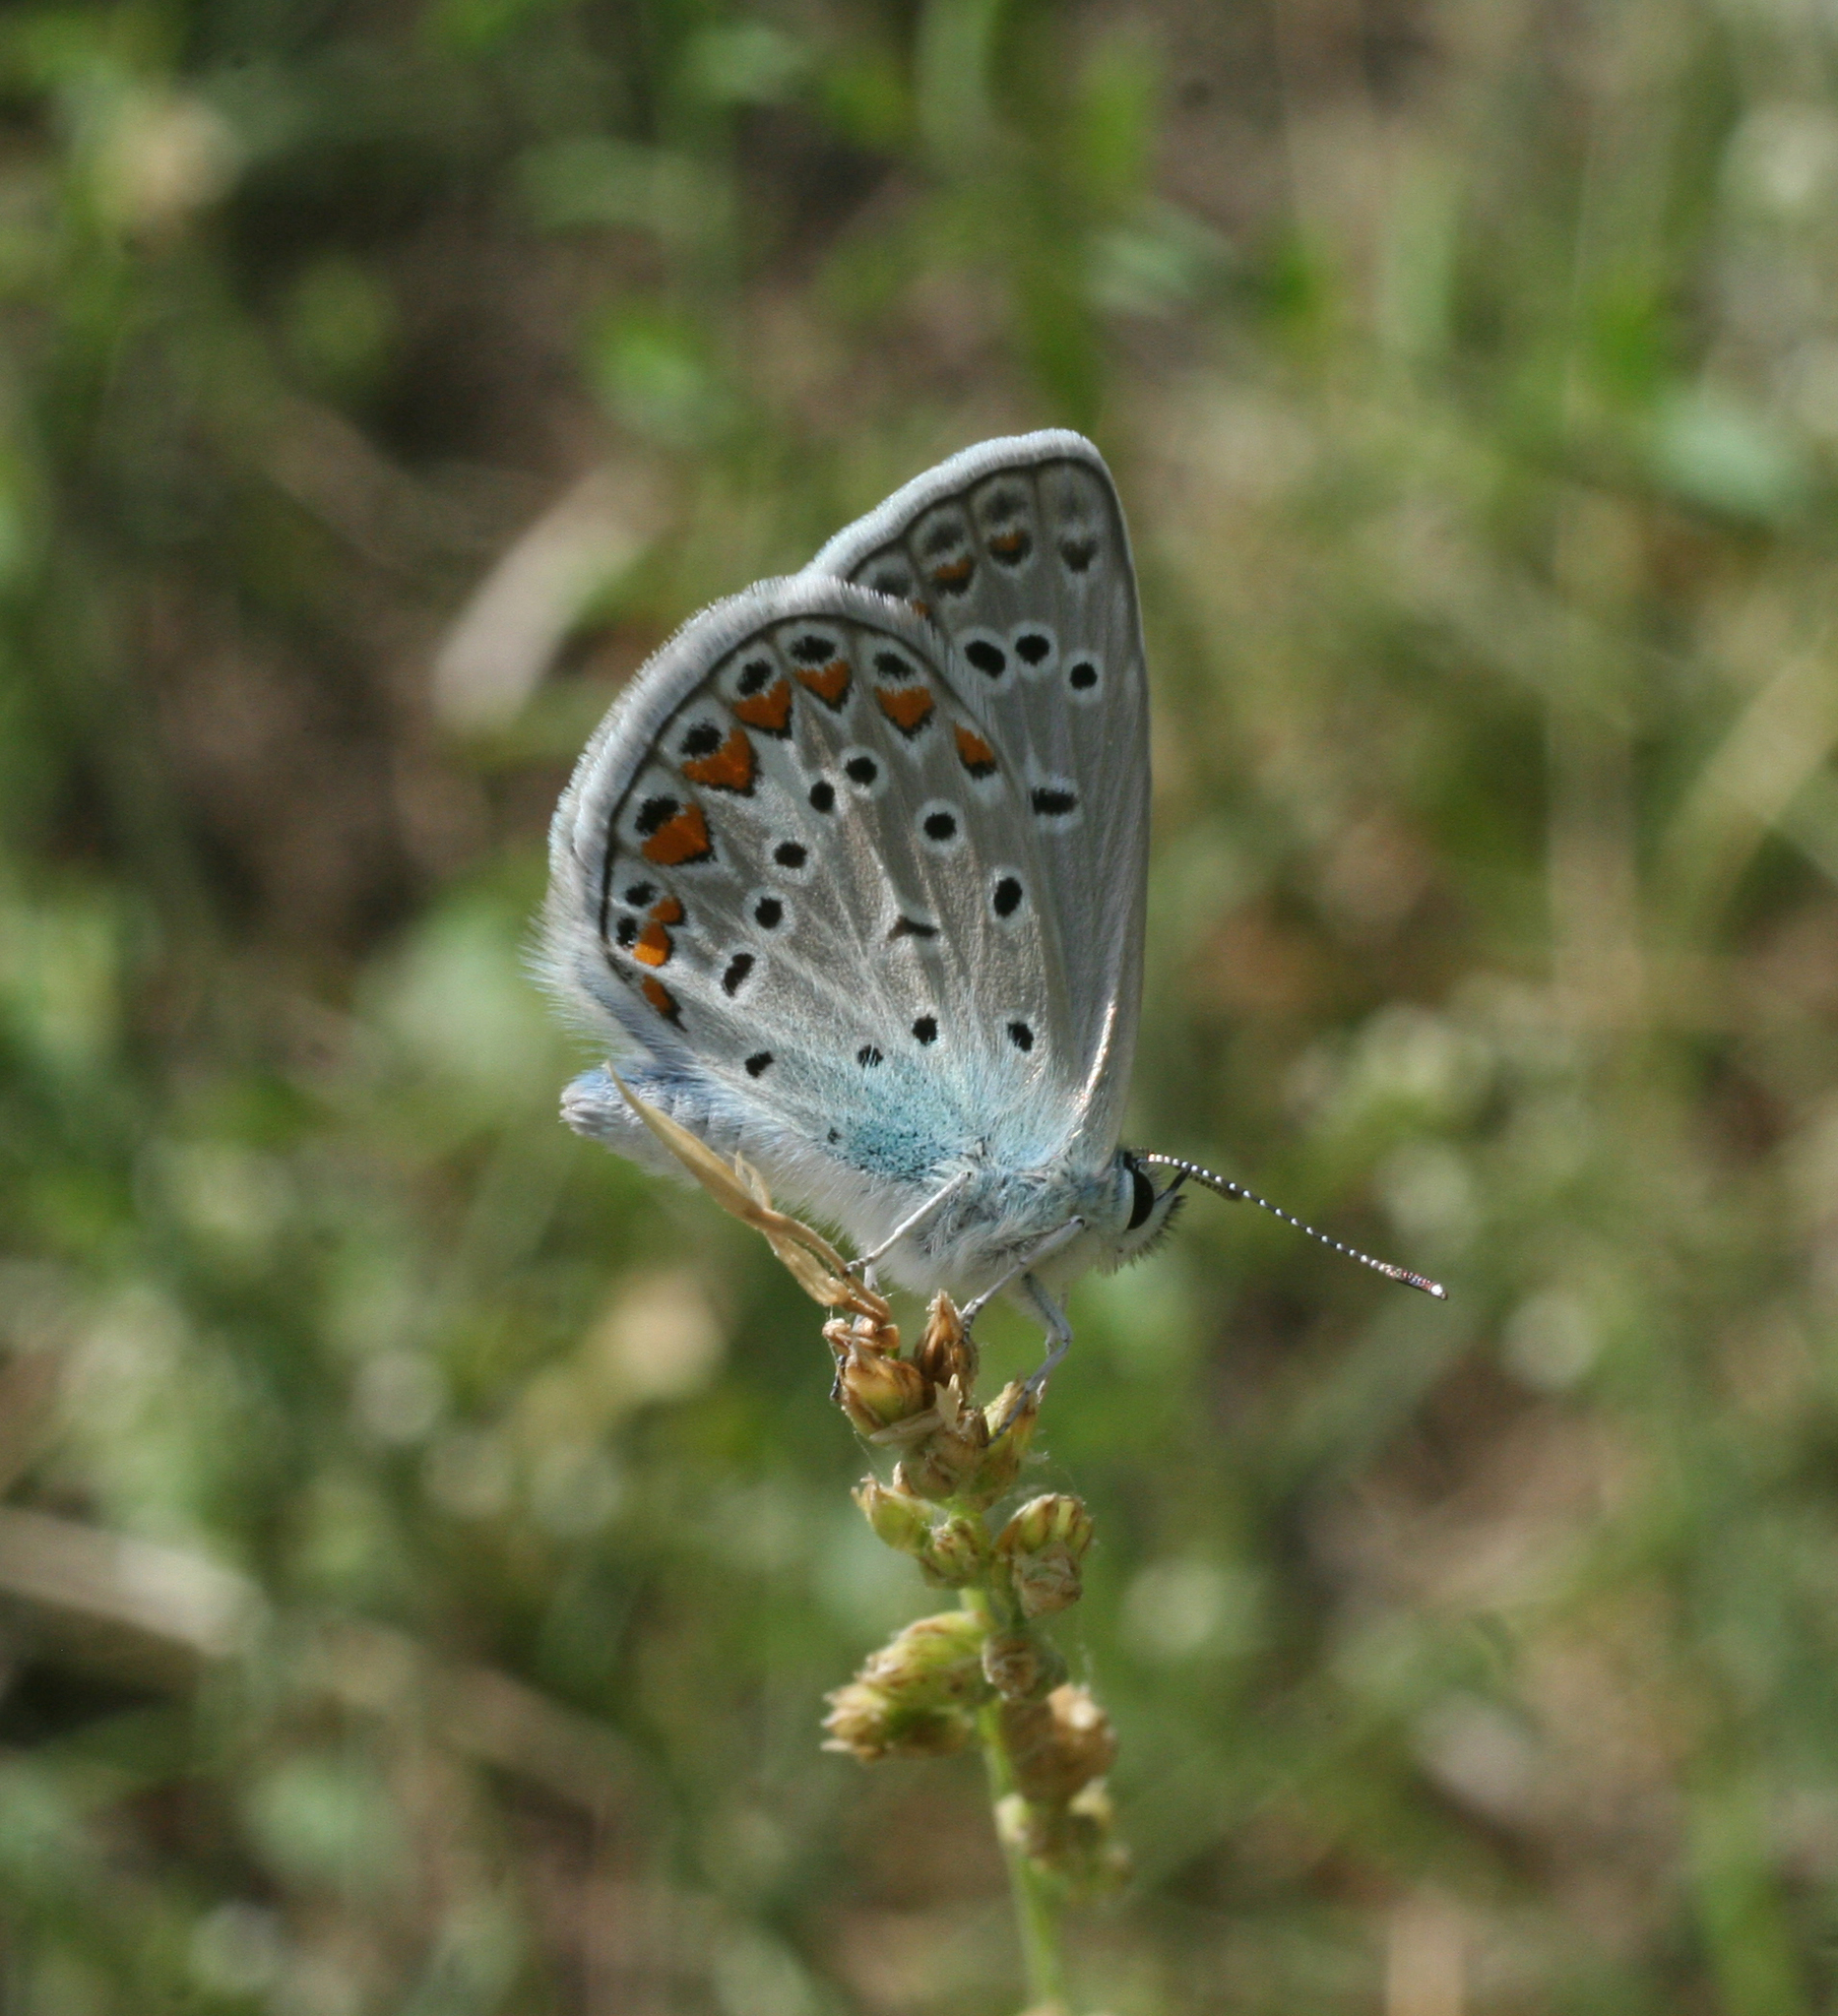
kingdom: Animalia
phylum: Arthropoda
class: Insecta
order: Lepidoptera
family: Lycaenidae
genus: Polyommatus
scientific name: Polyommatus icarus
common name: Common blue
